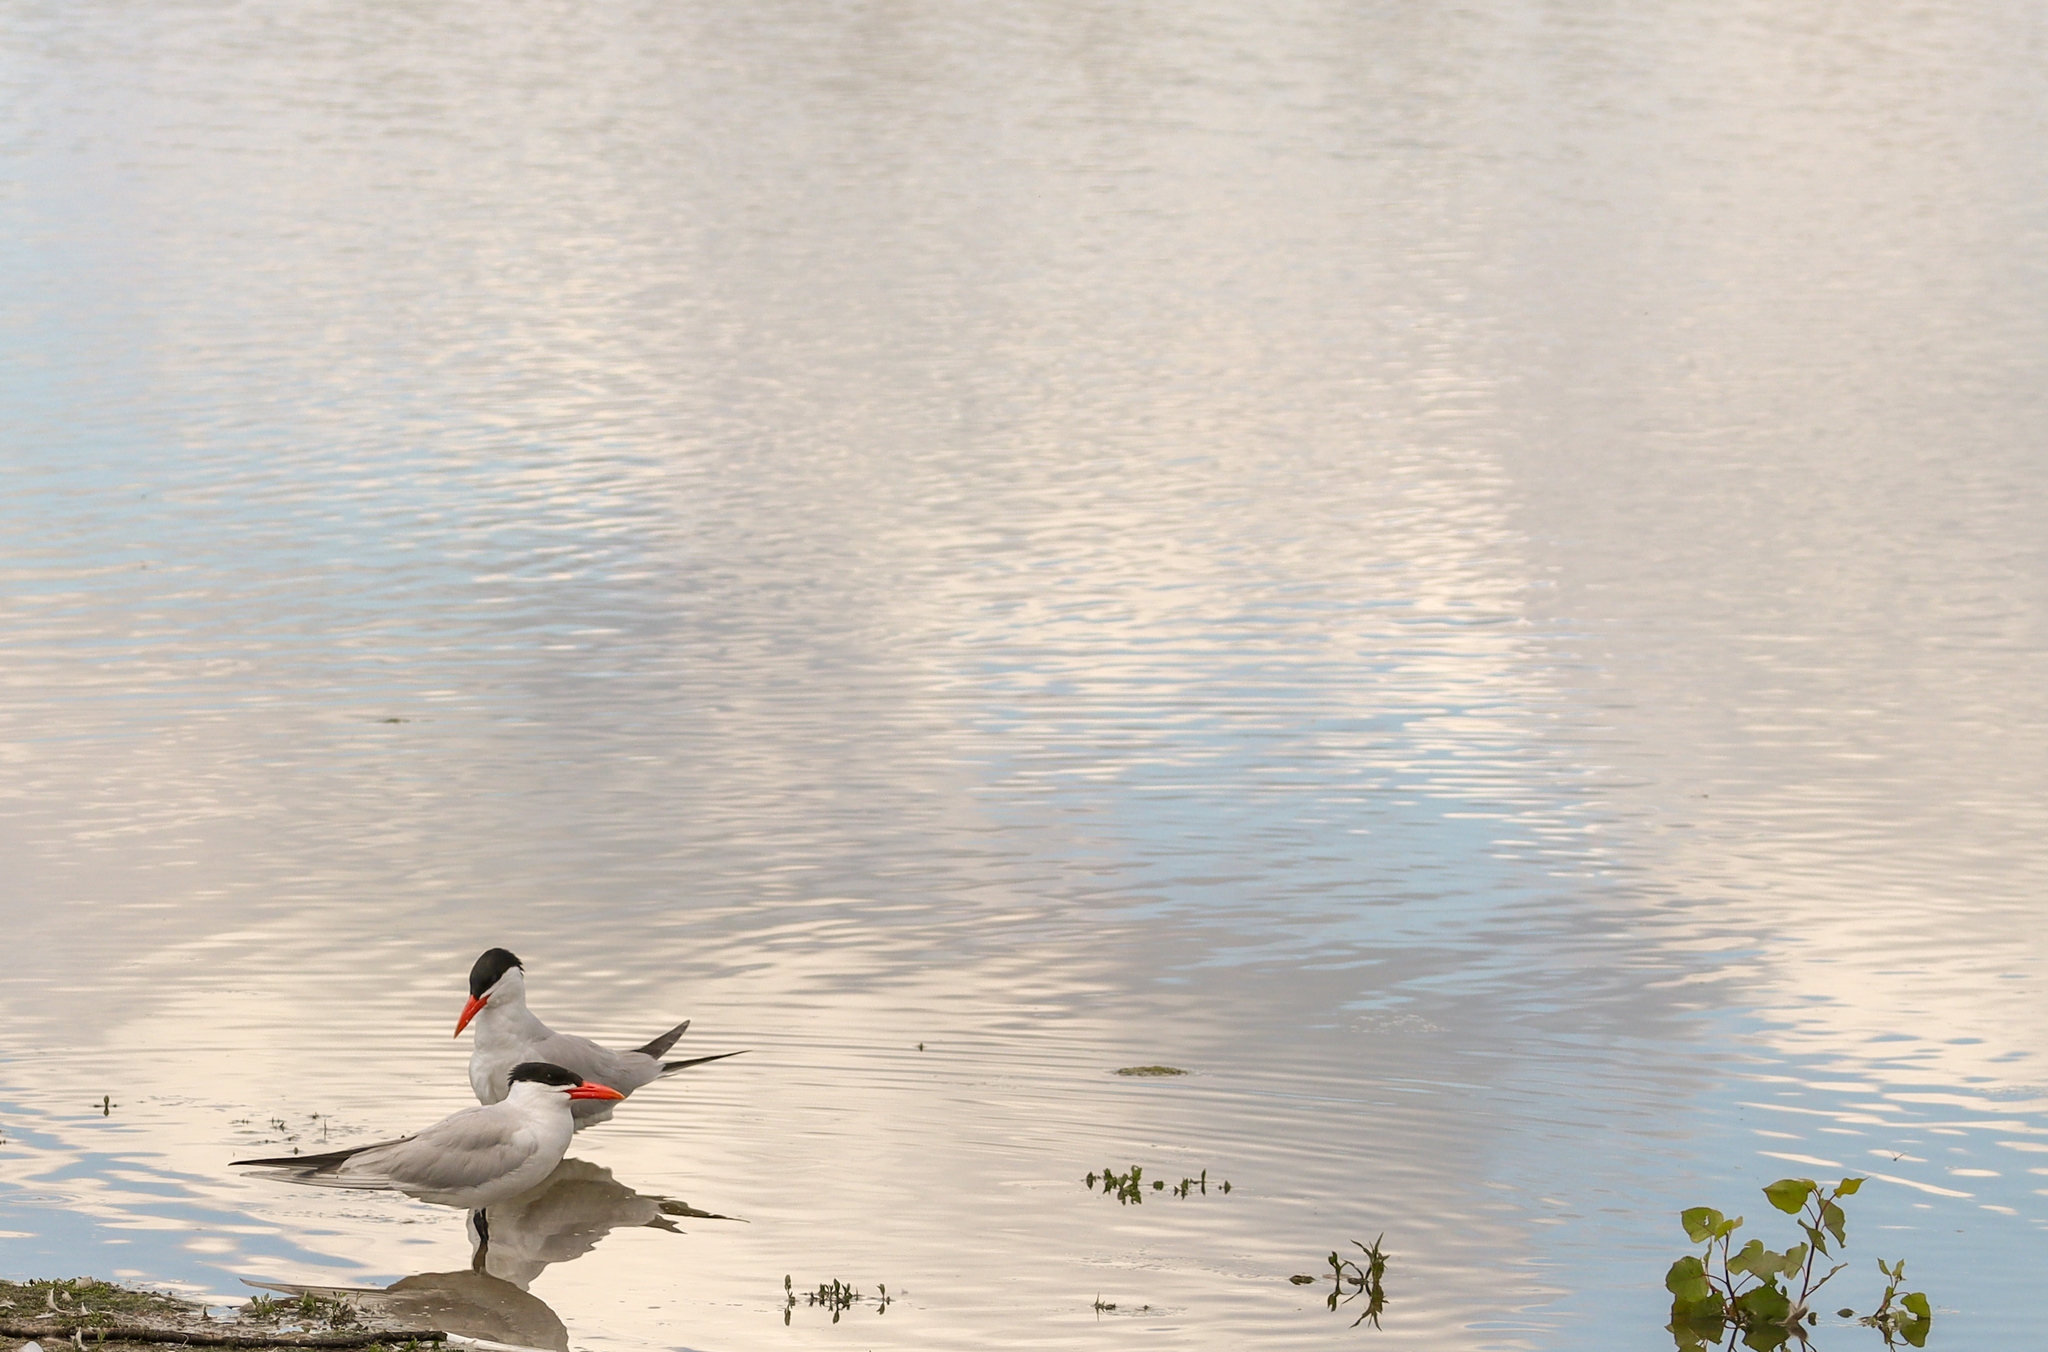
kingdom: Animalia
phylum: Chordata
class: Aves
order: Charadriiformes
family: Laridae
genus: Hydroprogne
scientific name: Hydroprogne caspia
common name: Caspian tern
